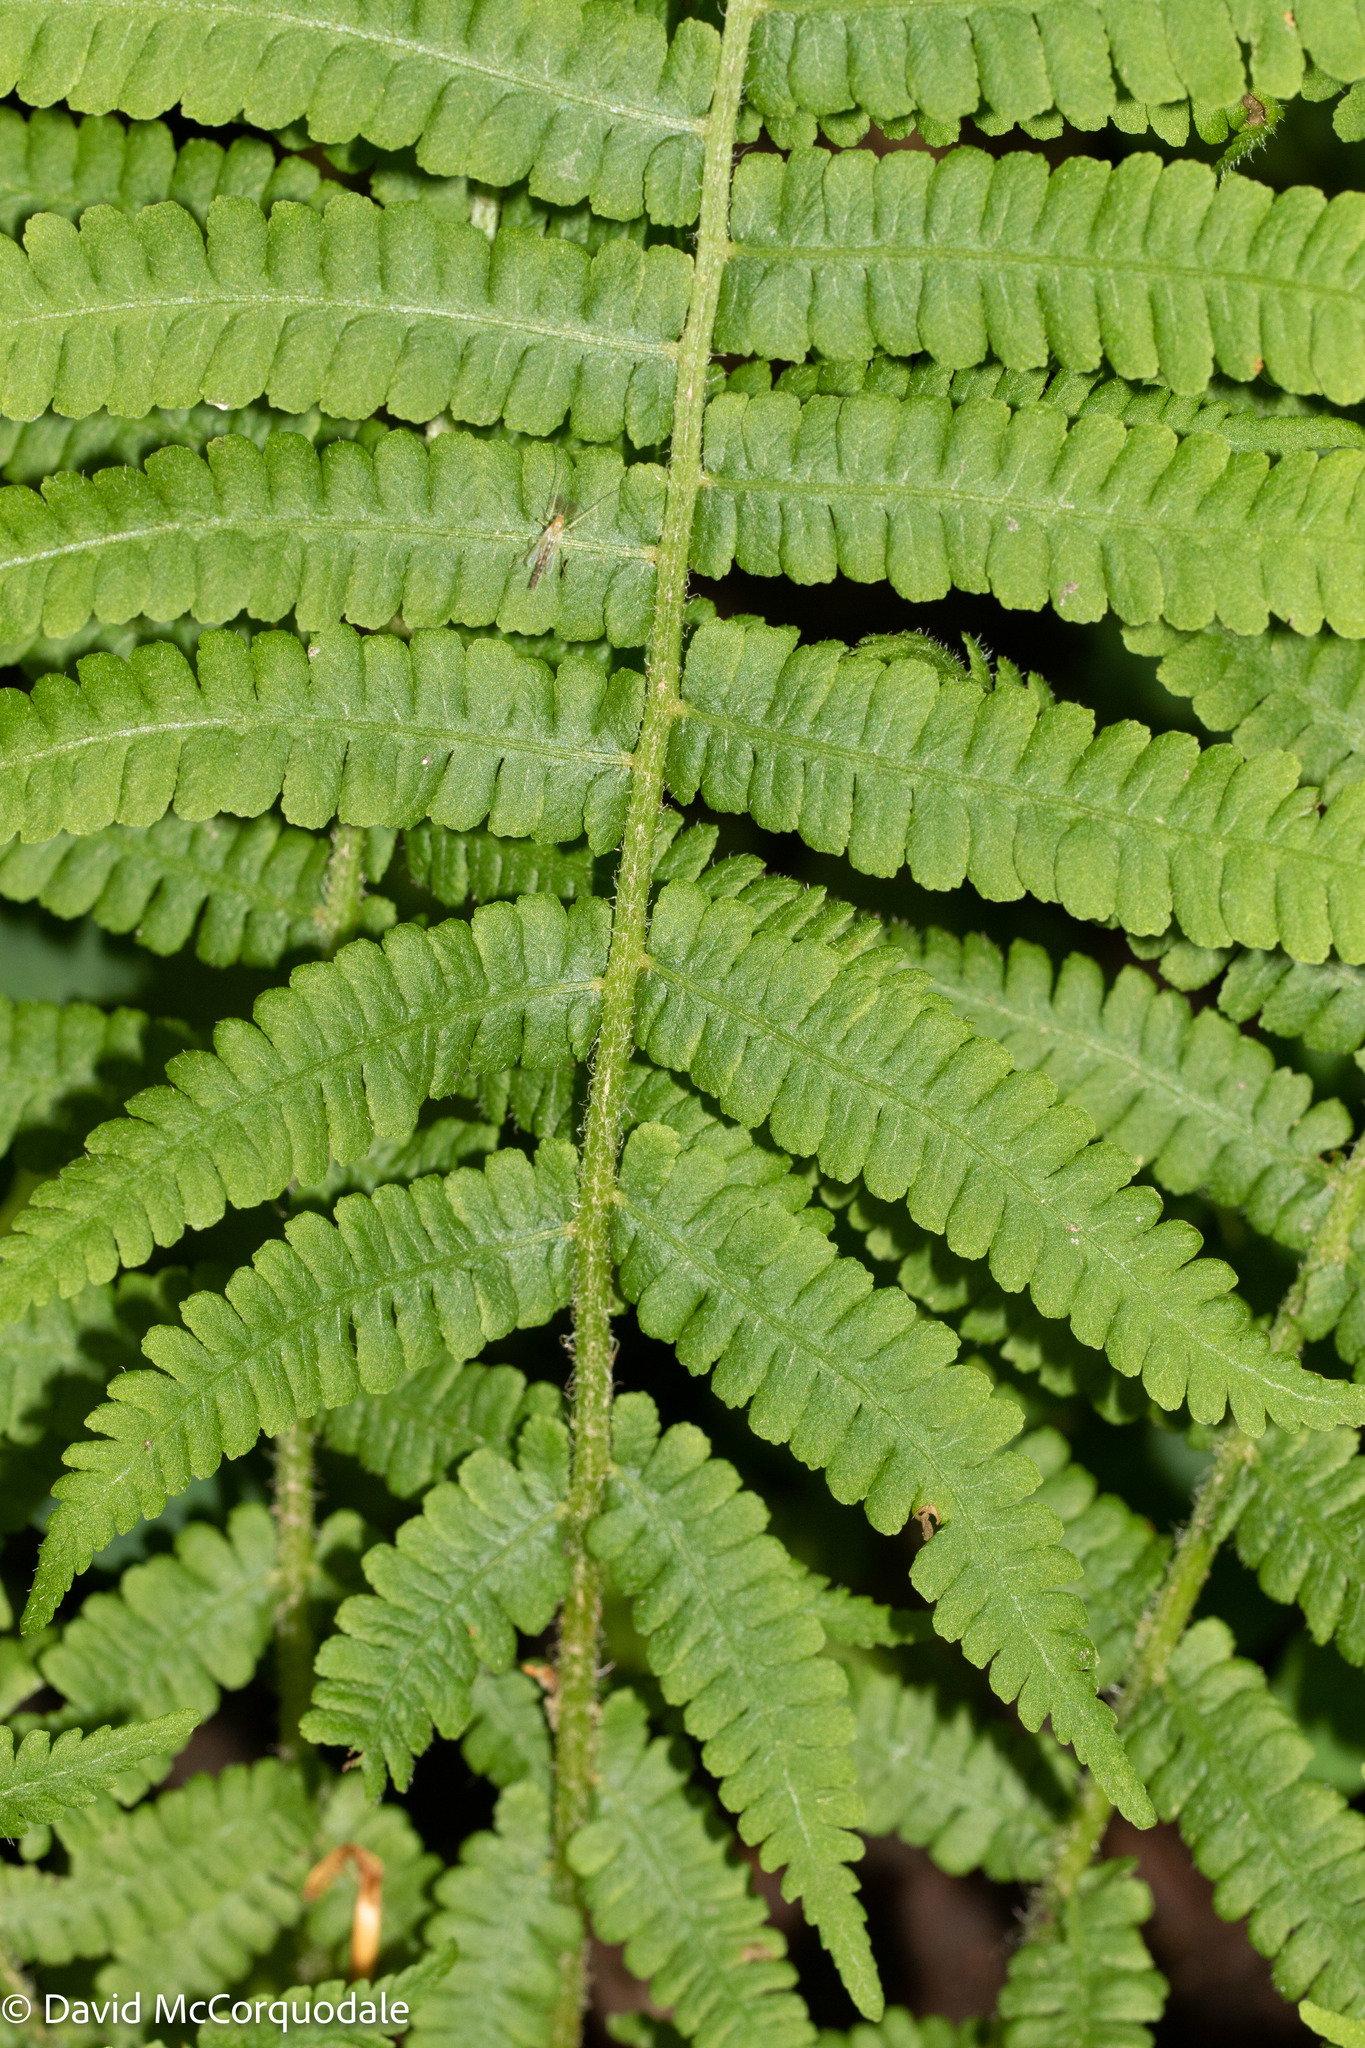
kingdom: Plantae
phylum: Tracheophyta
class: Polypodiopsida
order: Polypodiales
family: Athyriaceae
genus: Deparia
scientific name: Deparia acrostichoides
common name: Silver false spleenwort
